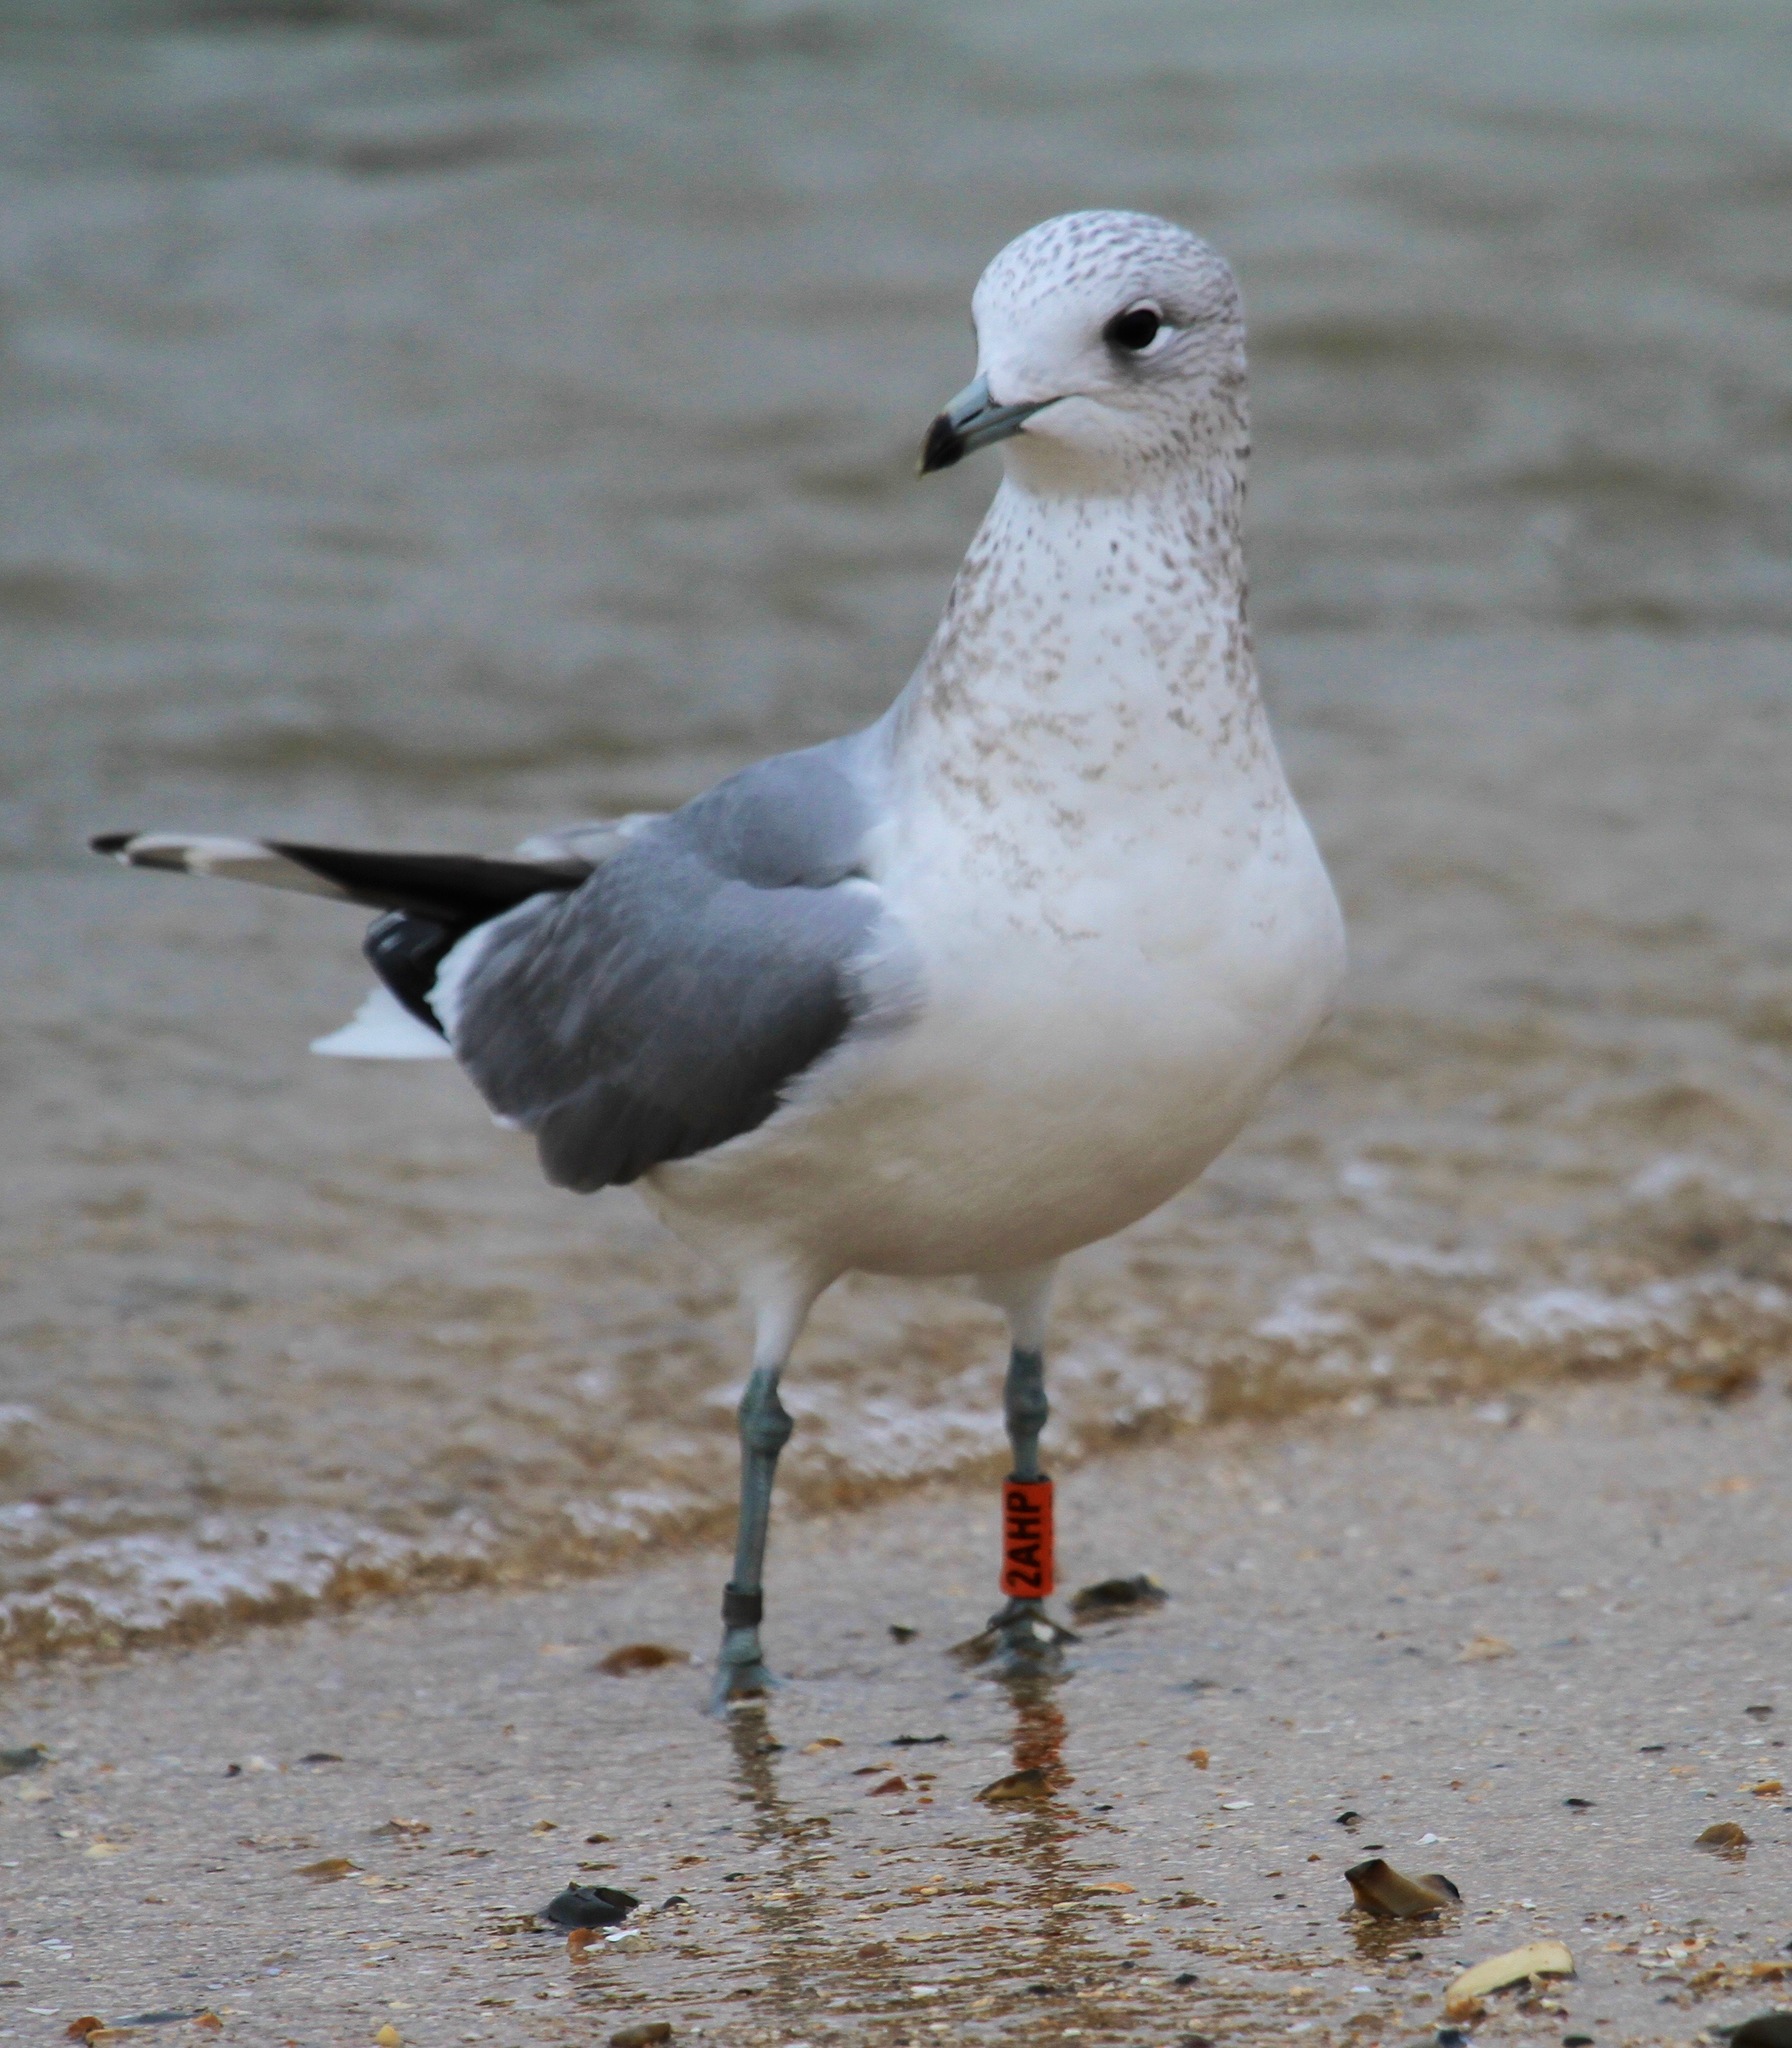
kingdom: Animalia
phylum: Chordata
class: Aves
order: Charadriiformes
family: Laridae
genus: Larus
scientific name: Larus canus
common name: Mew gull
